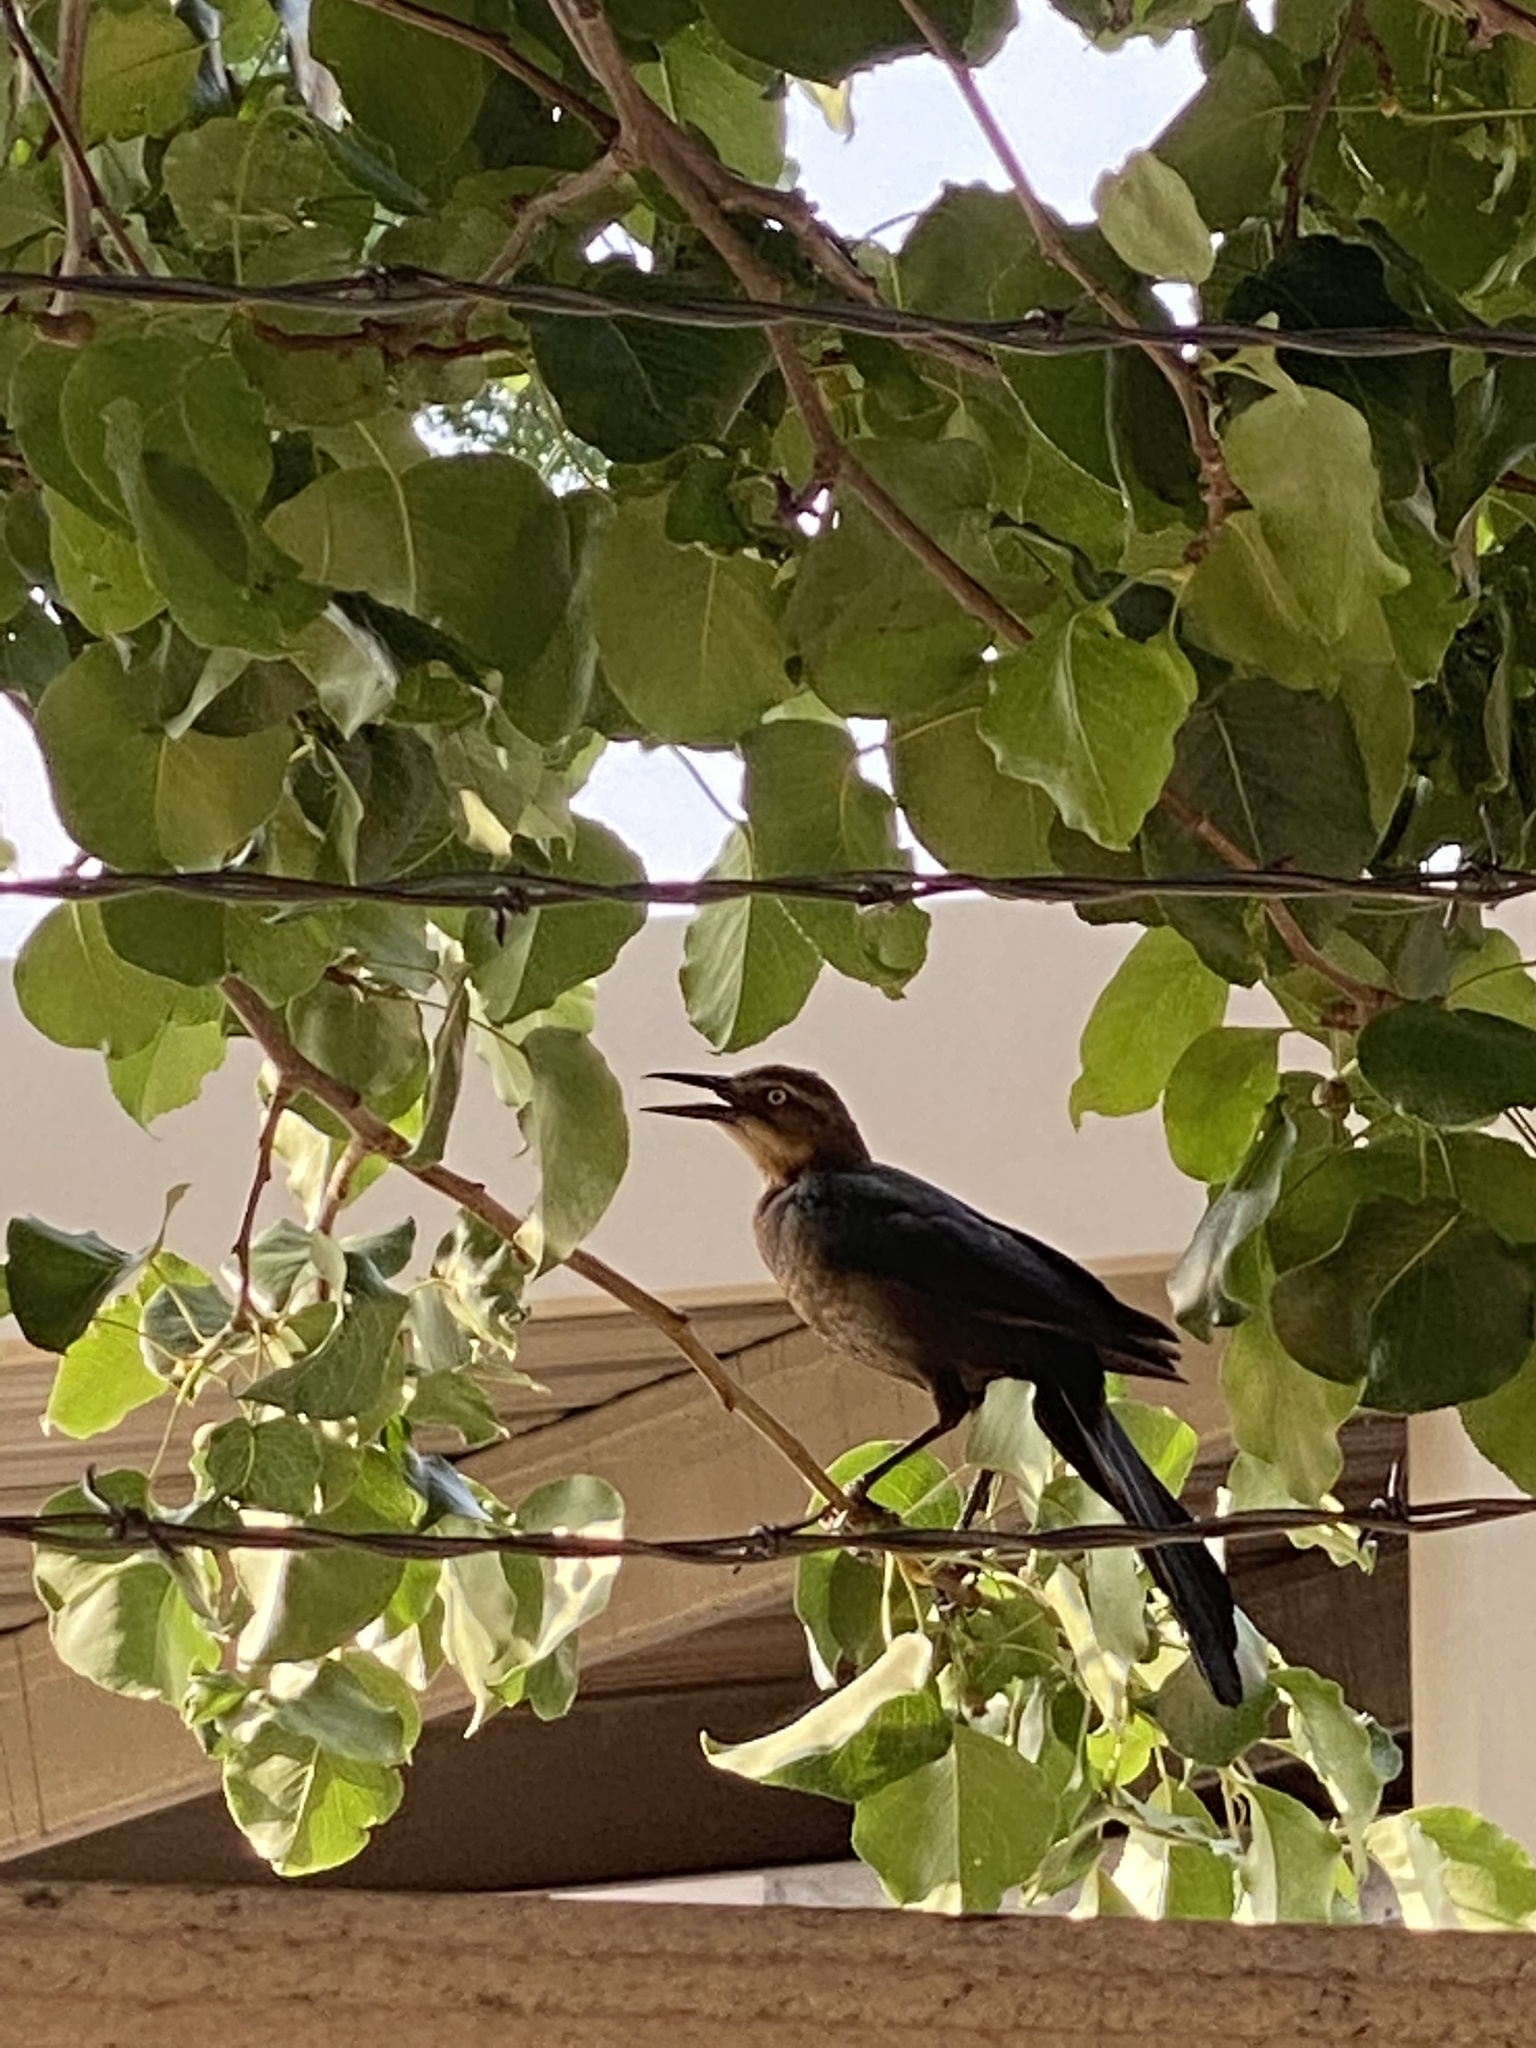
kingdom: Animalia
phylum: Chordata
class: Aves
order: Passeriformes
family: Icteridae
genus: Quiscalus
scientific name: Quiscalus mexicanus
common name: Great-tailed grackle
